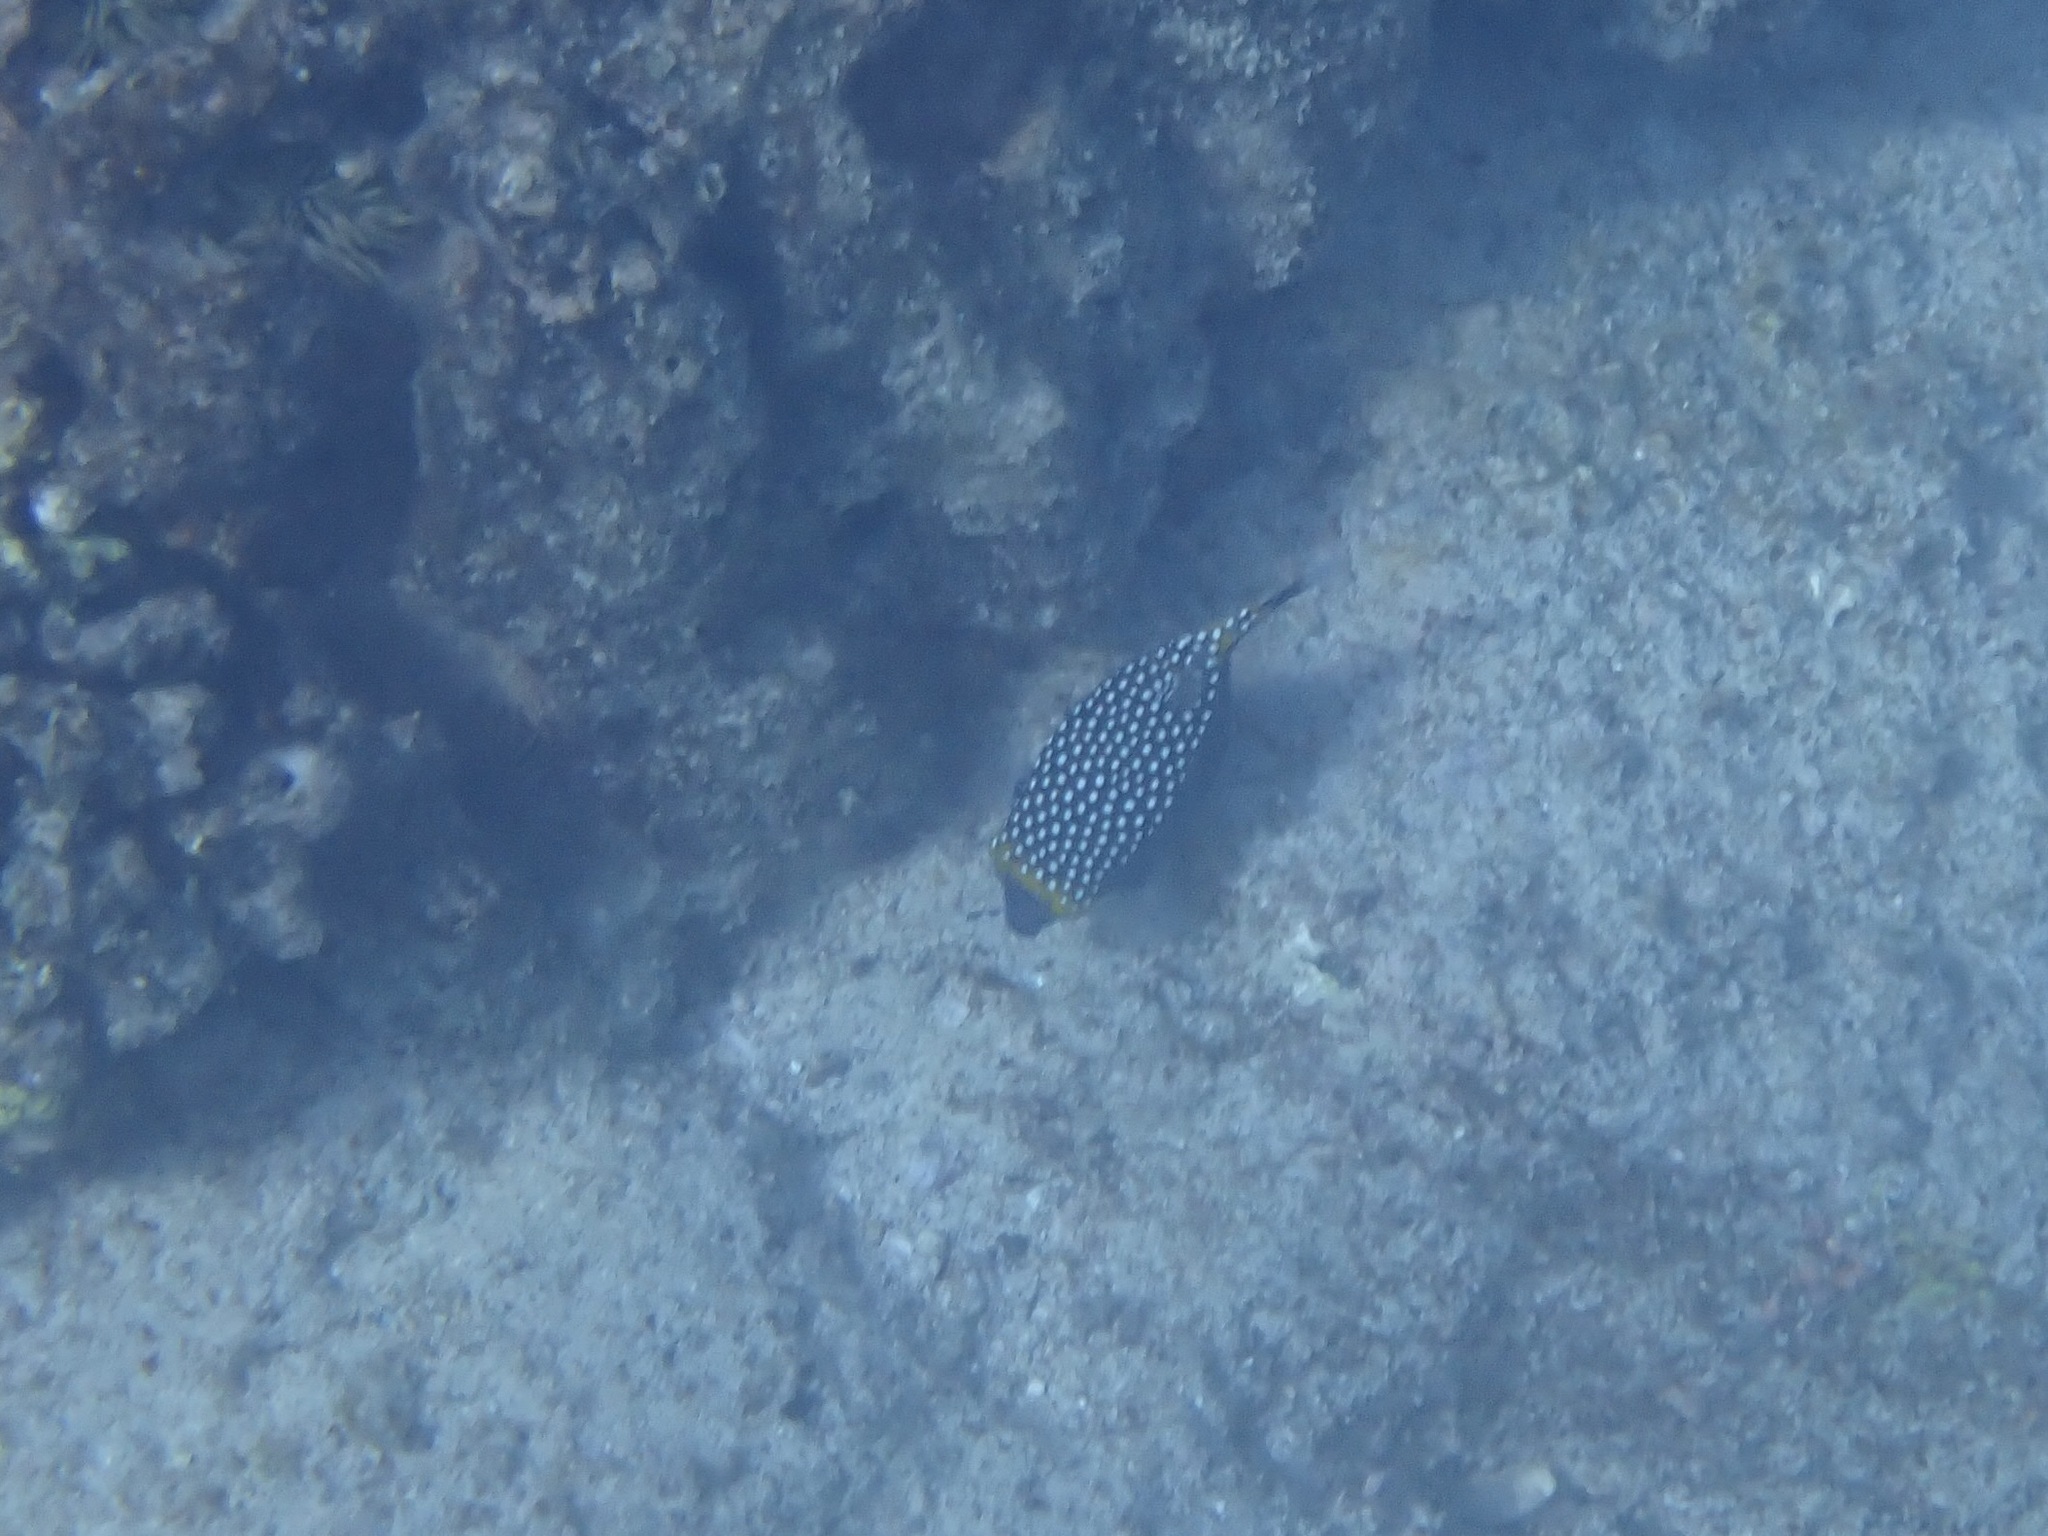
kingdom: Animalia
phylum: Chordata
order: Tetraodontiformes
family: Ostraciidae
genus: Ostracion
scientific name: Ostracion meleagris
